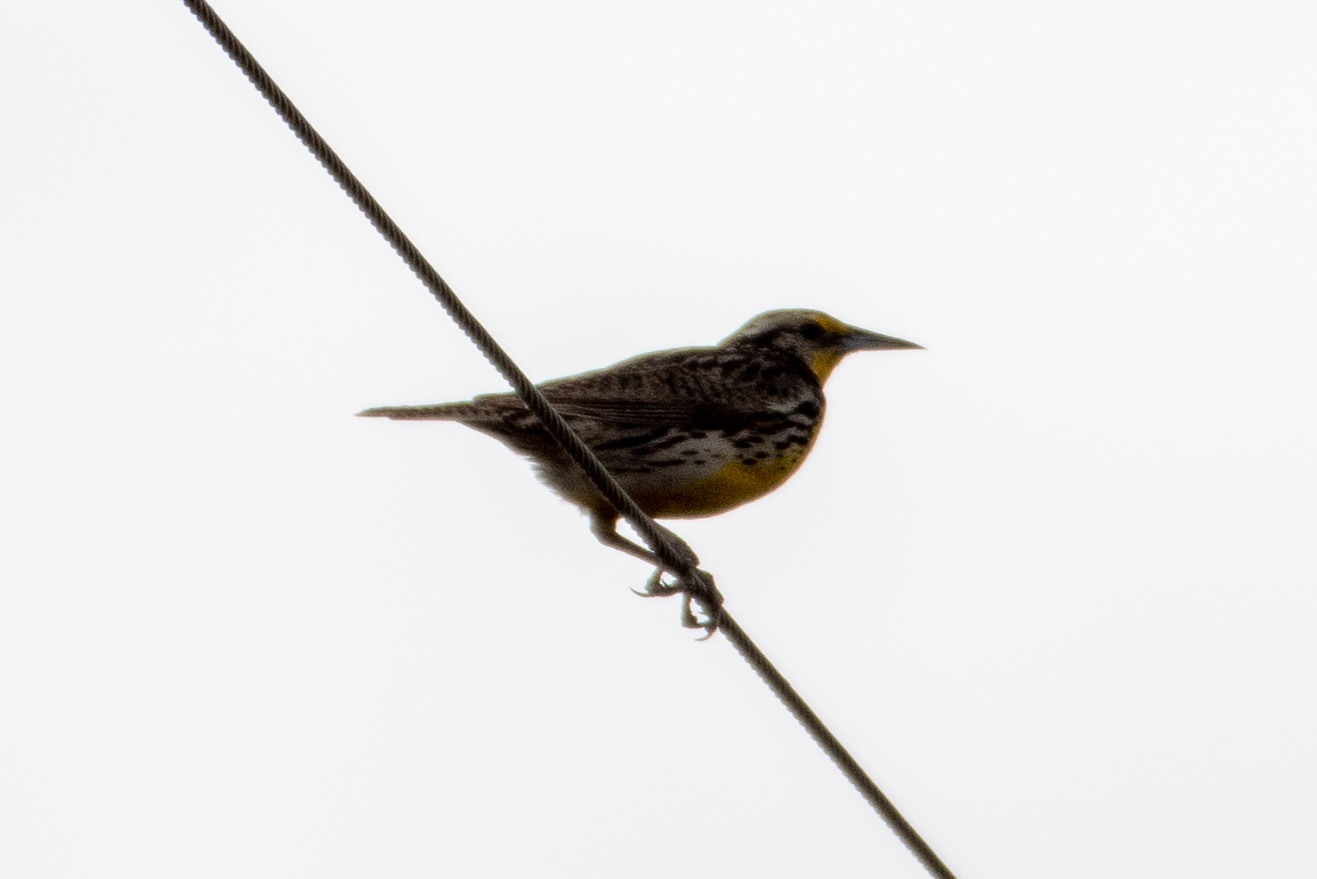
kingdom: Animalia
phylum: Chordata
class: Aves
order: Passeriformes
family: Icteridae
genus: Sturnella
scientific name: Sturnella neglecta
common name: Western meadowlark
